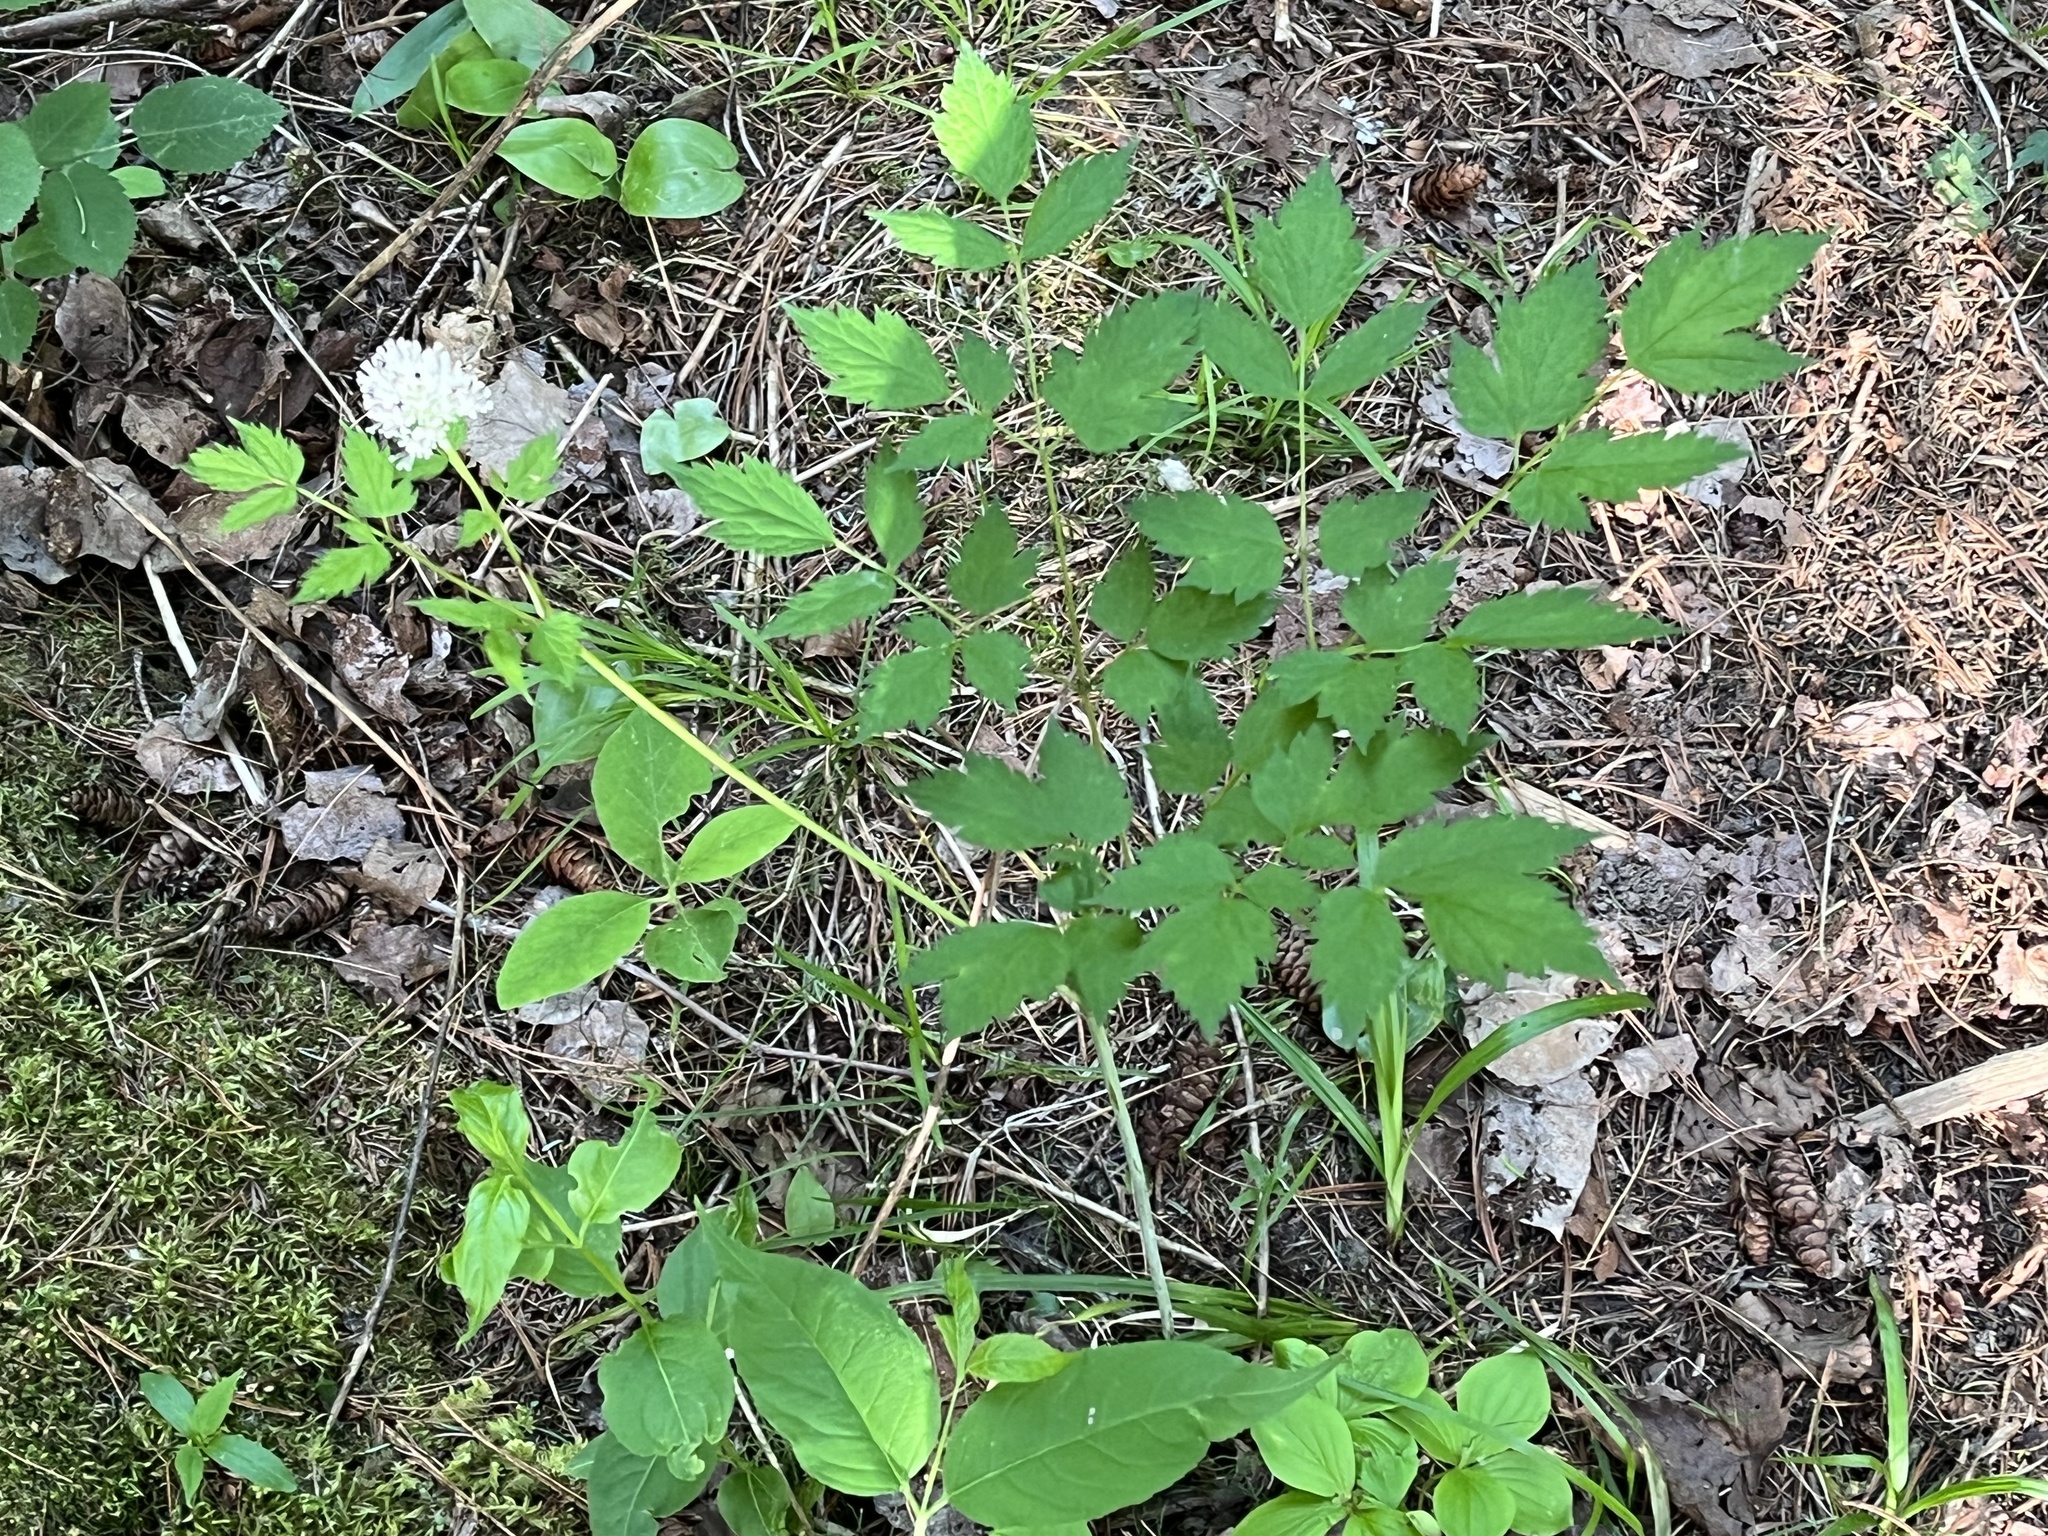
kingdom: Plantae
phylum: Tracheophyta
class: Magnoliopsida
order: Ranunculales
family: Ranunculaceae
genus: Actaea
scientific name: Actaea rubra
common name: Red baneberry
